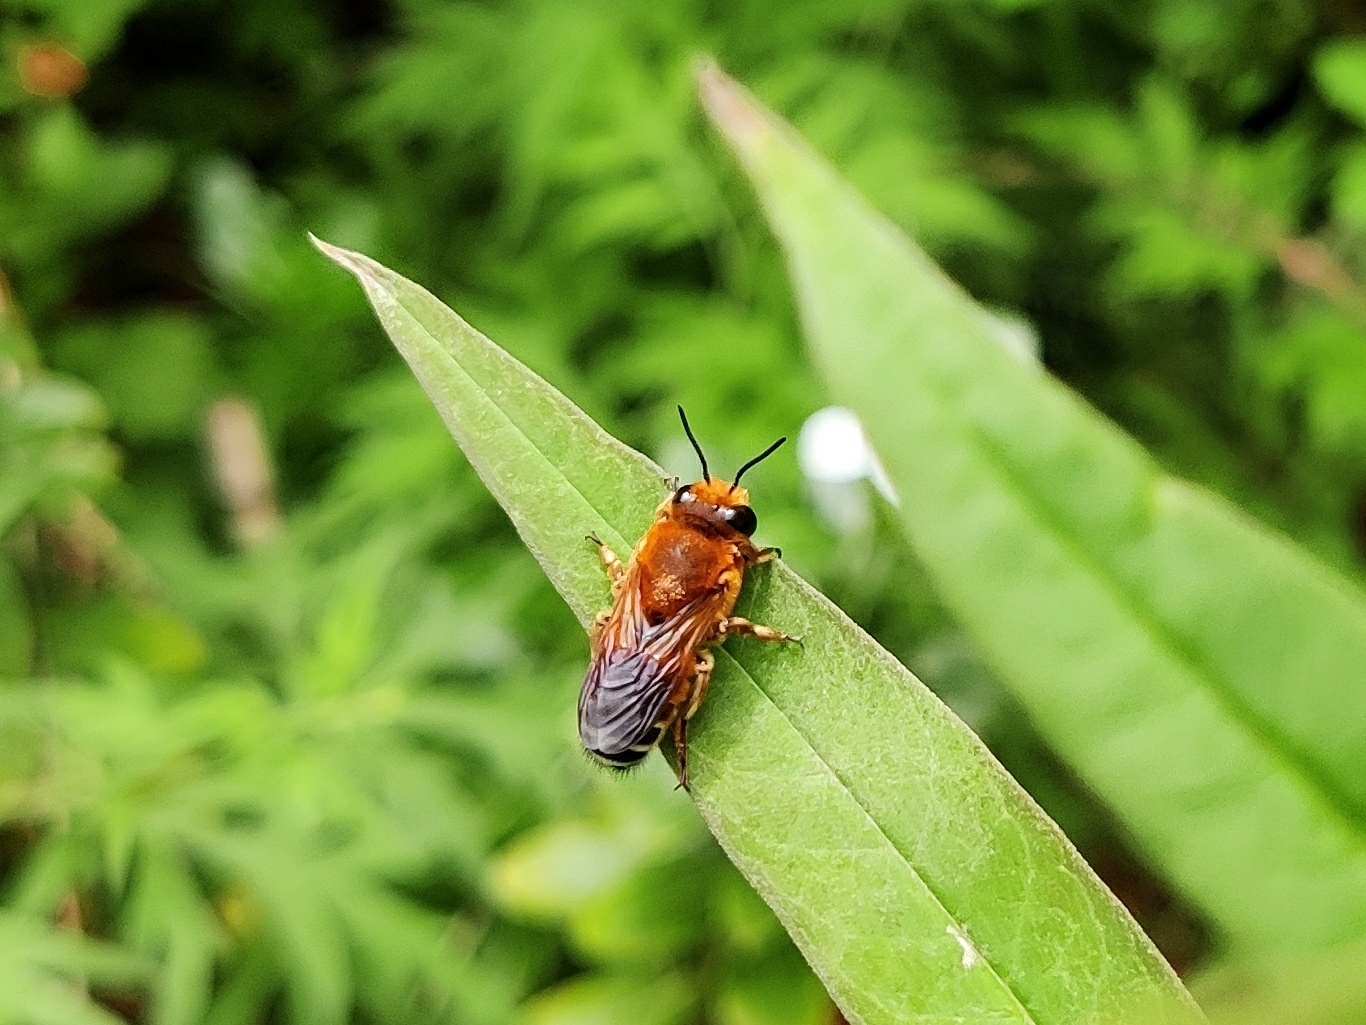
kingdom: Animalia
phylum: Arthropoda
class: Insecta
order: Hymenoptera
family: Megachilidae
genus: Megachile
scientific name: Megachile lanata
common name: Wooly wall bee
